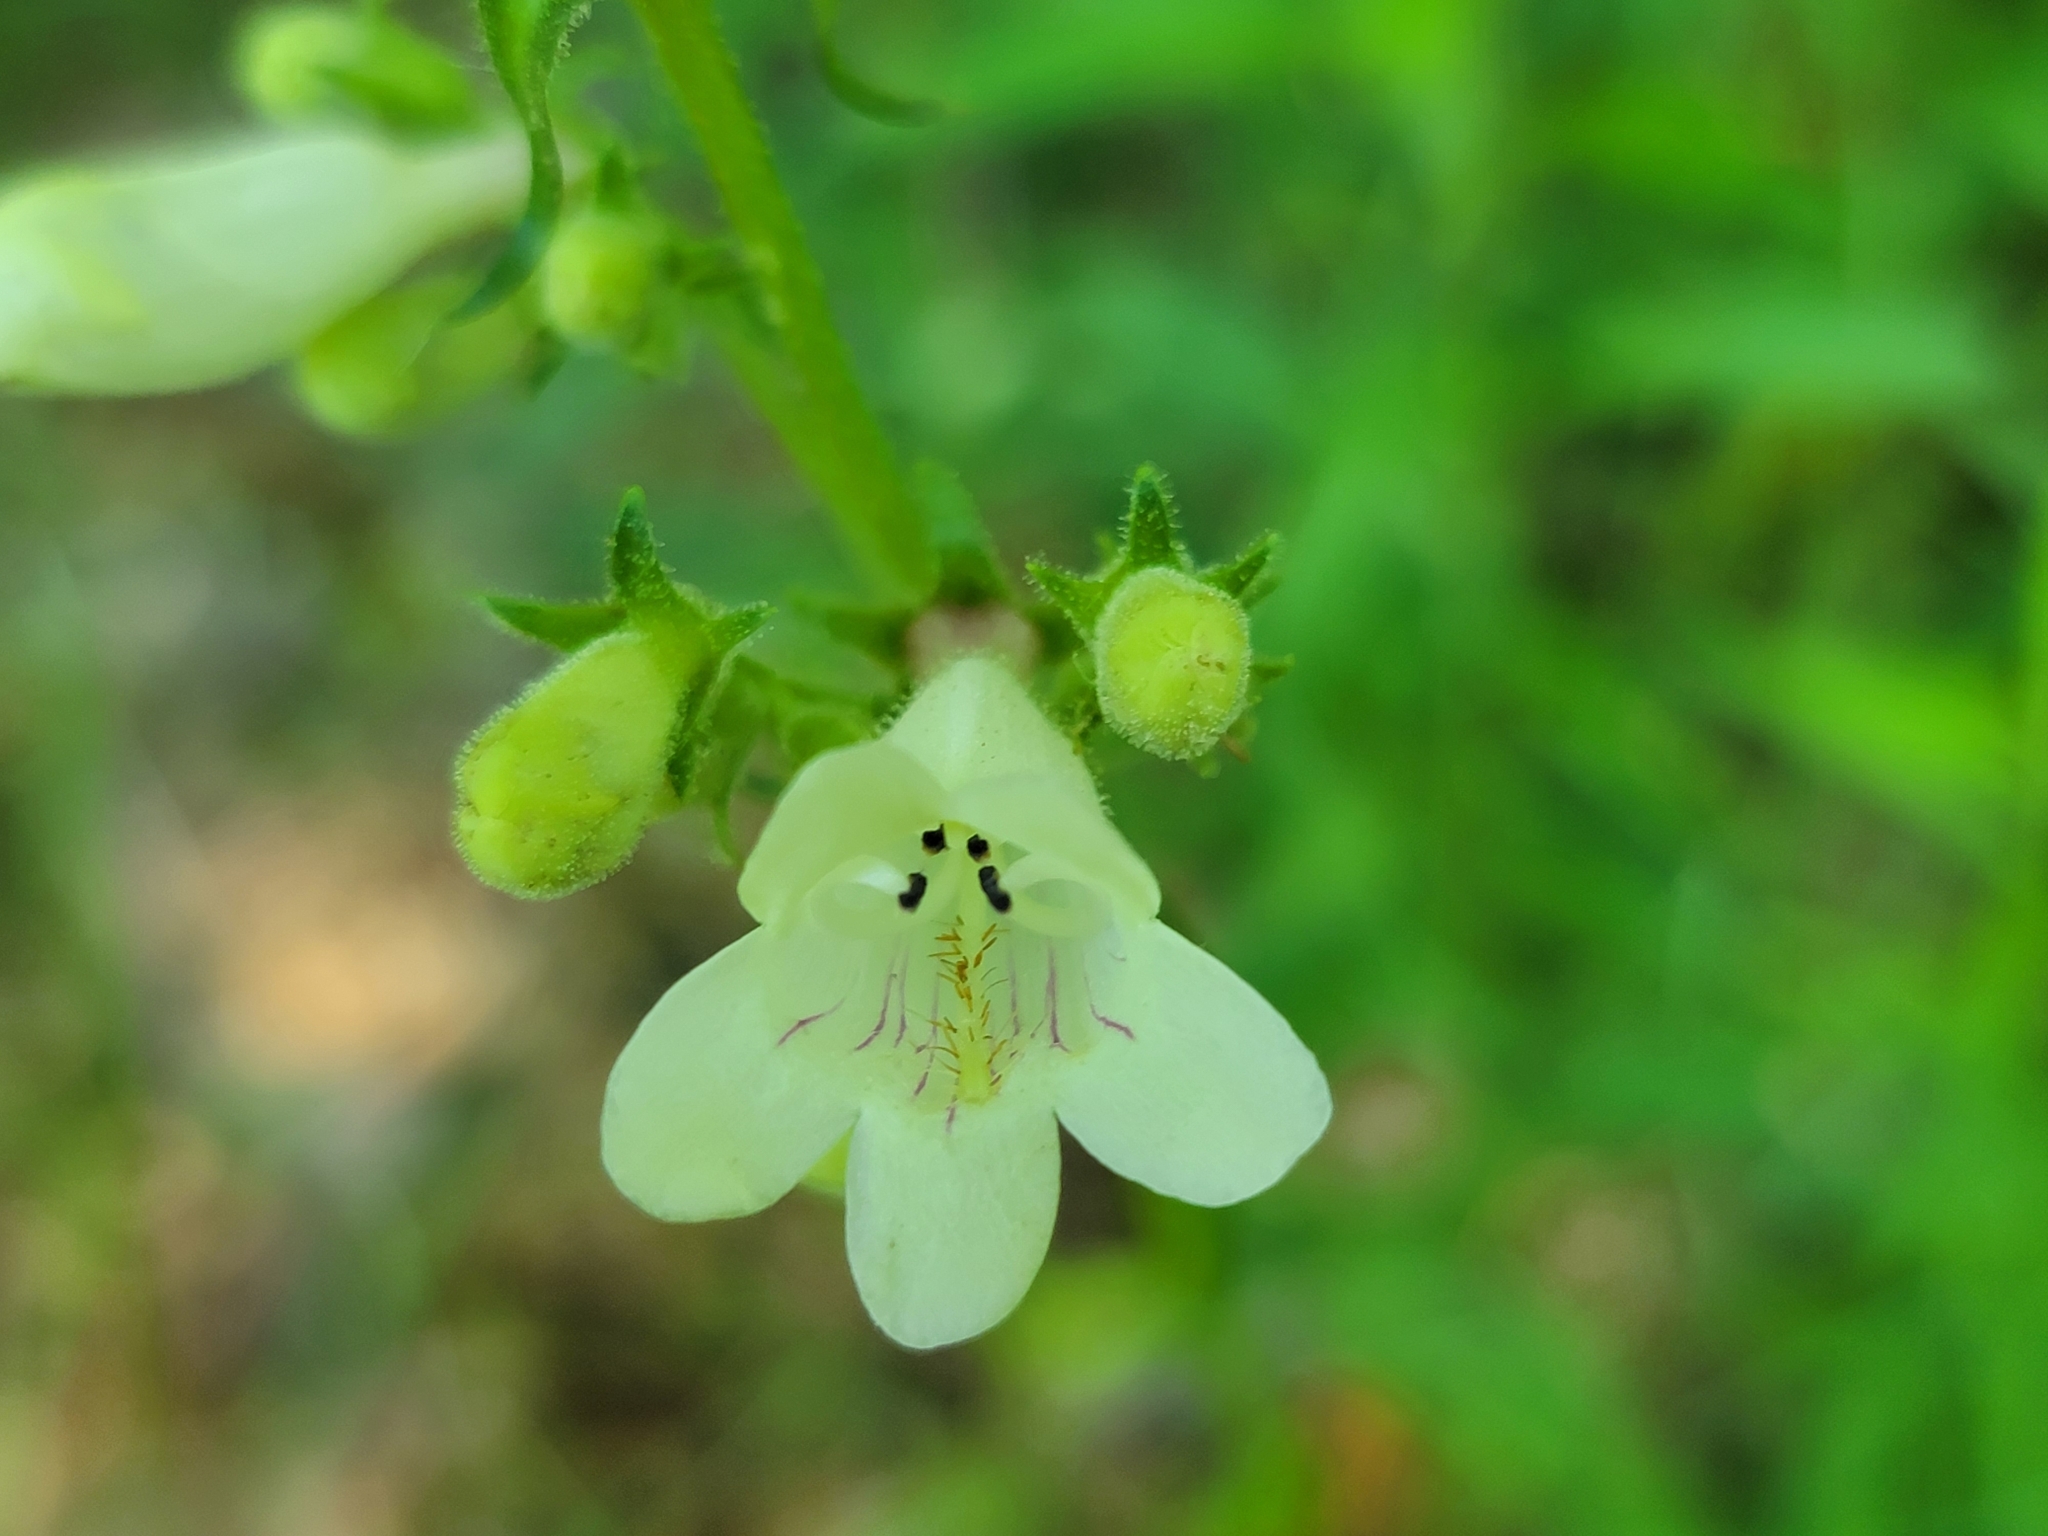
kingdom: Plantae
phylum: Tracheophyta
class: Magnoliopsida
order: Lamiales
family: Plantaginaceae
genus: Penstemon
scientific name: Penstemon digitalis
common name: Foxglove beardtongue
